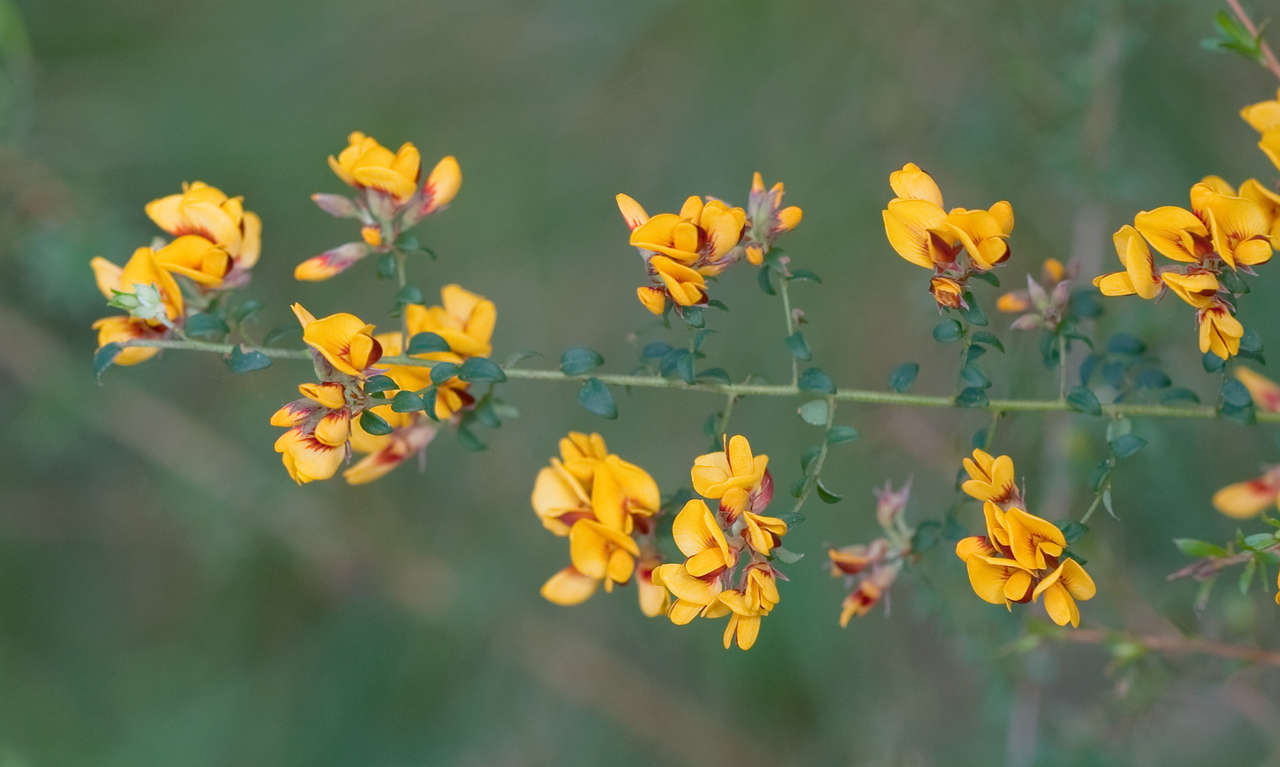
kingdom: Plantae
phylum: Tracheophyta
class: Magnoliopsida
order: Fabales
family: Fabaceae
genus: Pultenaea
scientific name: Pultenaea gunnii
